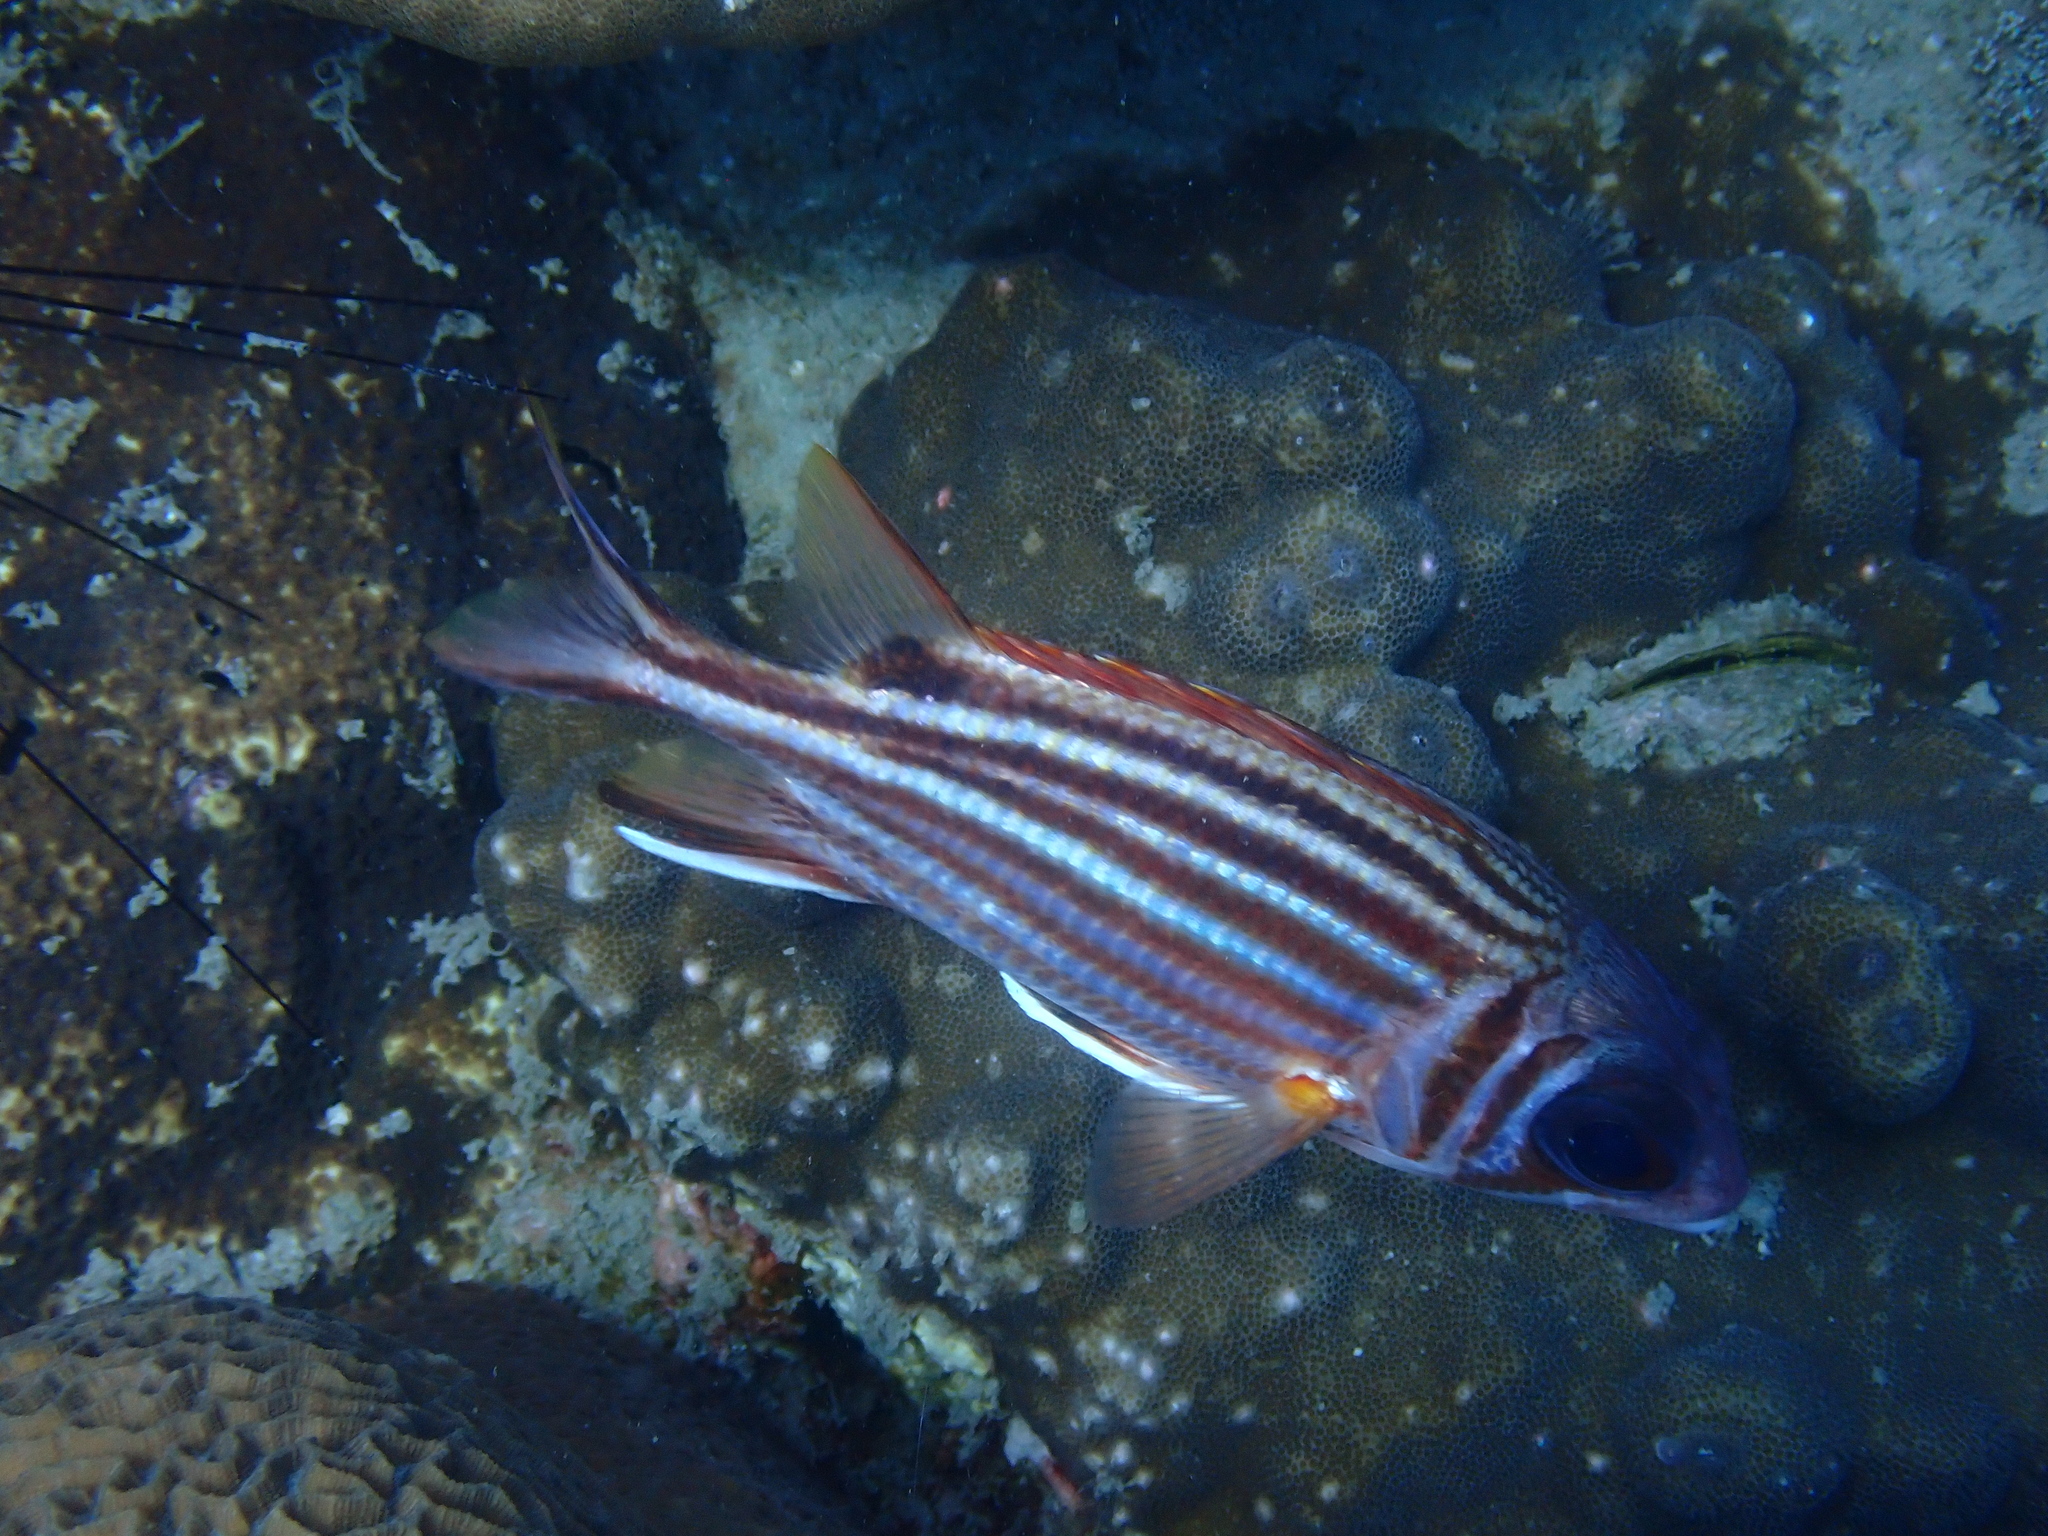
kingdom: Animalia
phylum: Chordata
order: Beryciformes
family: Holocentridae
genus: Sargocentron
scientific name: Sargocentron rubrum
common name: Redcoat
